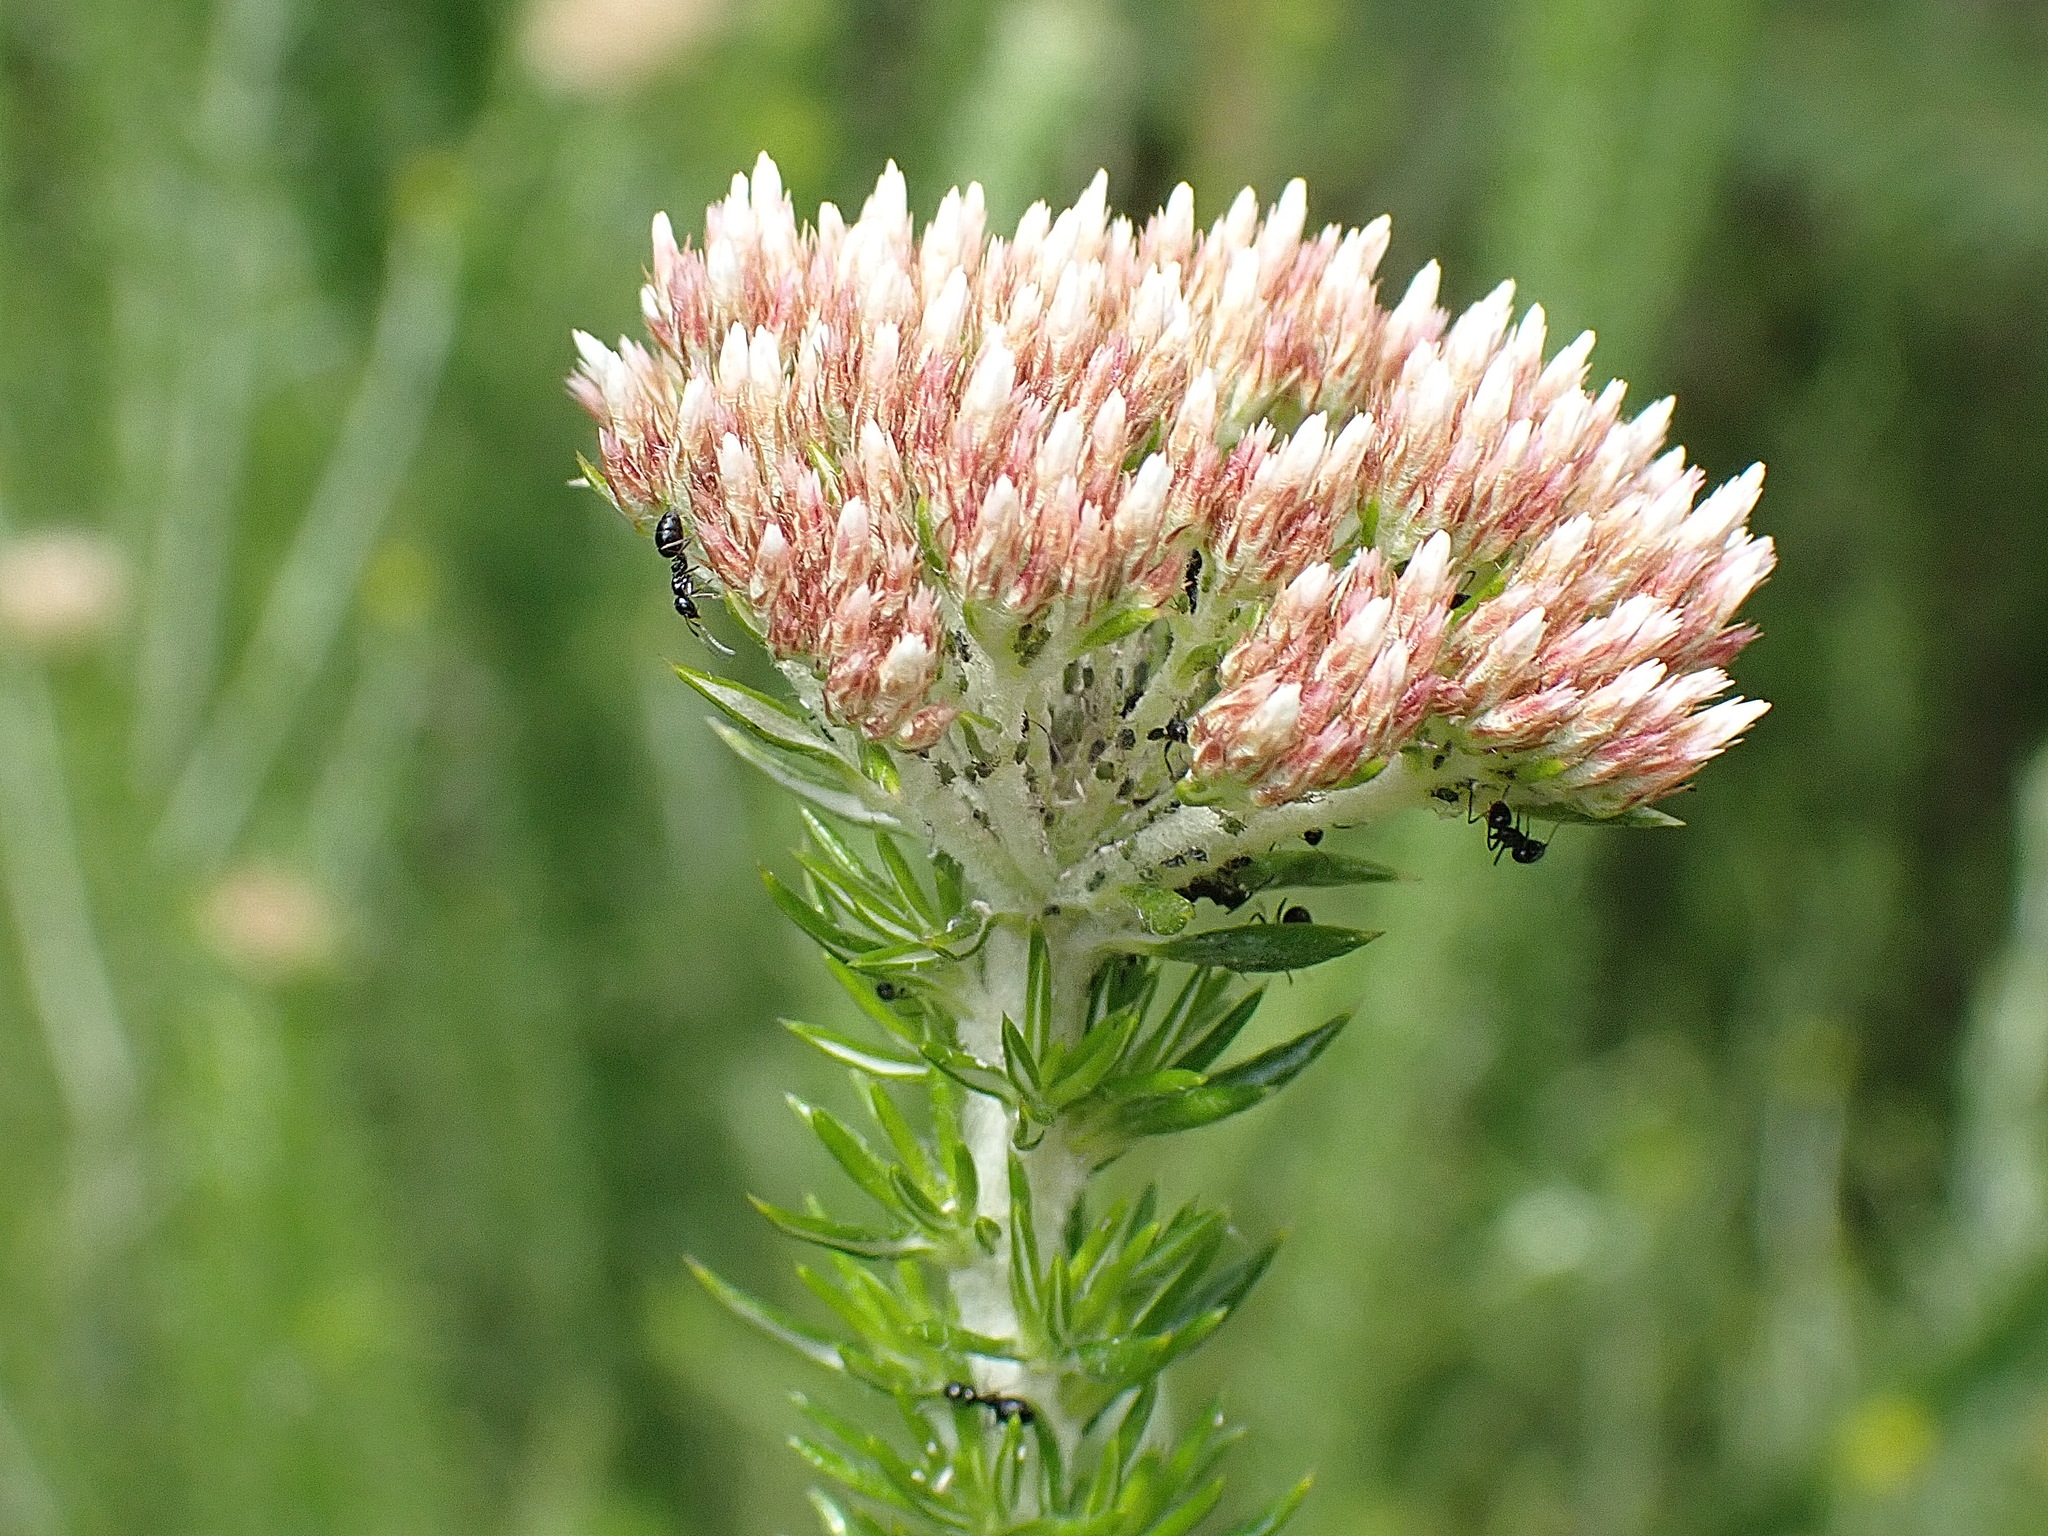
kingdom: Animalia
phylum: Arthropoda
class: Insecta
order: Hymenoptera
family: Formicidae
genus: Lepisiota
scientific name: Lepisiota capensis
